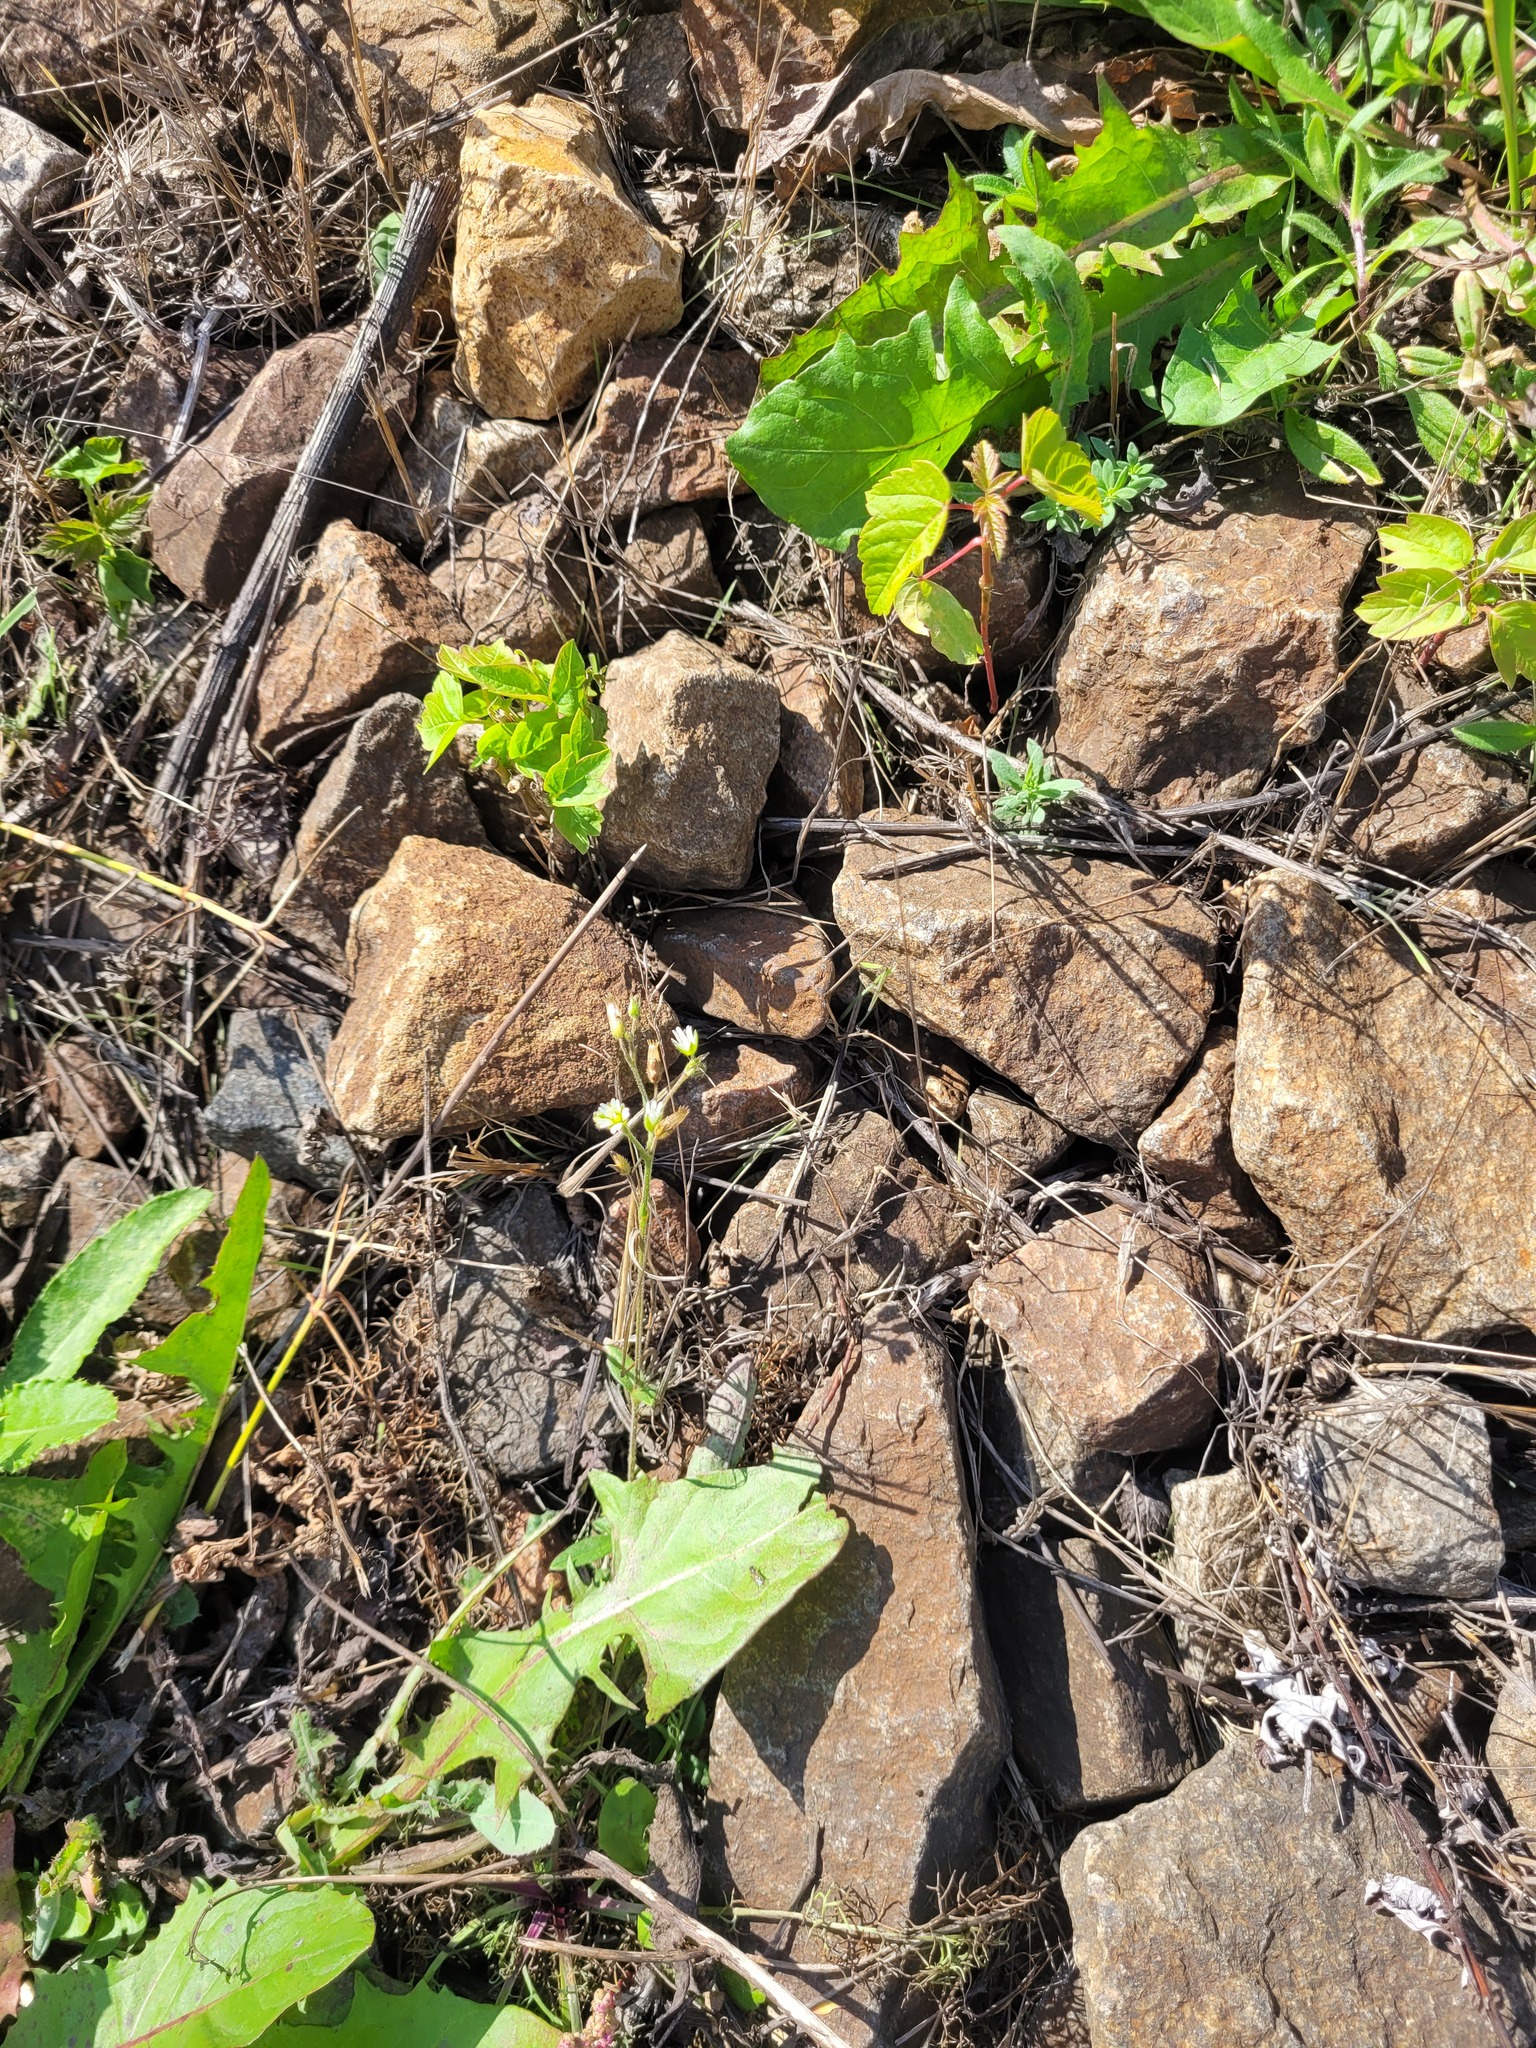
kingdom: Plantae
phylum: Tracheophyta
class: Magnoliopsida
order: Caryophyllales
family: Caryophyllaceae
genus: Cerastium
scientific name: Cerastium holosteoides
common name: Big chickweed
